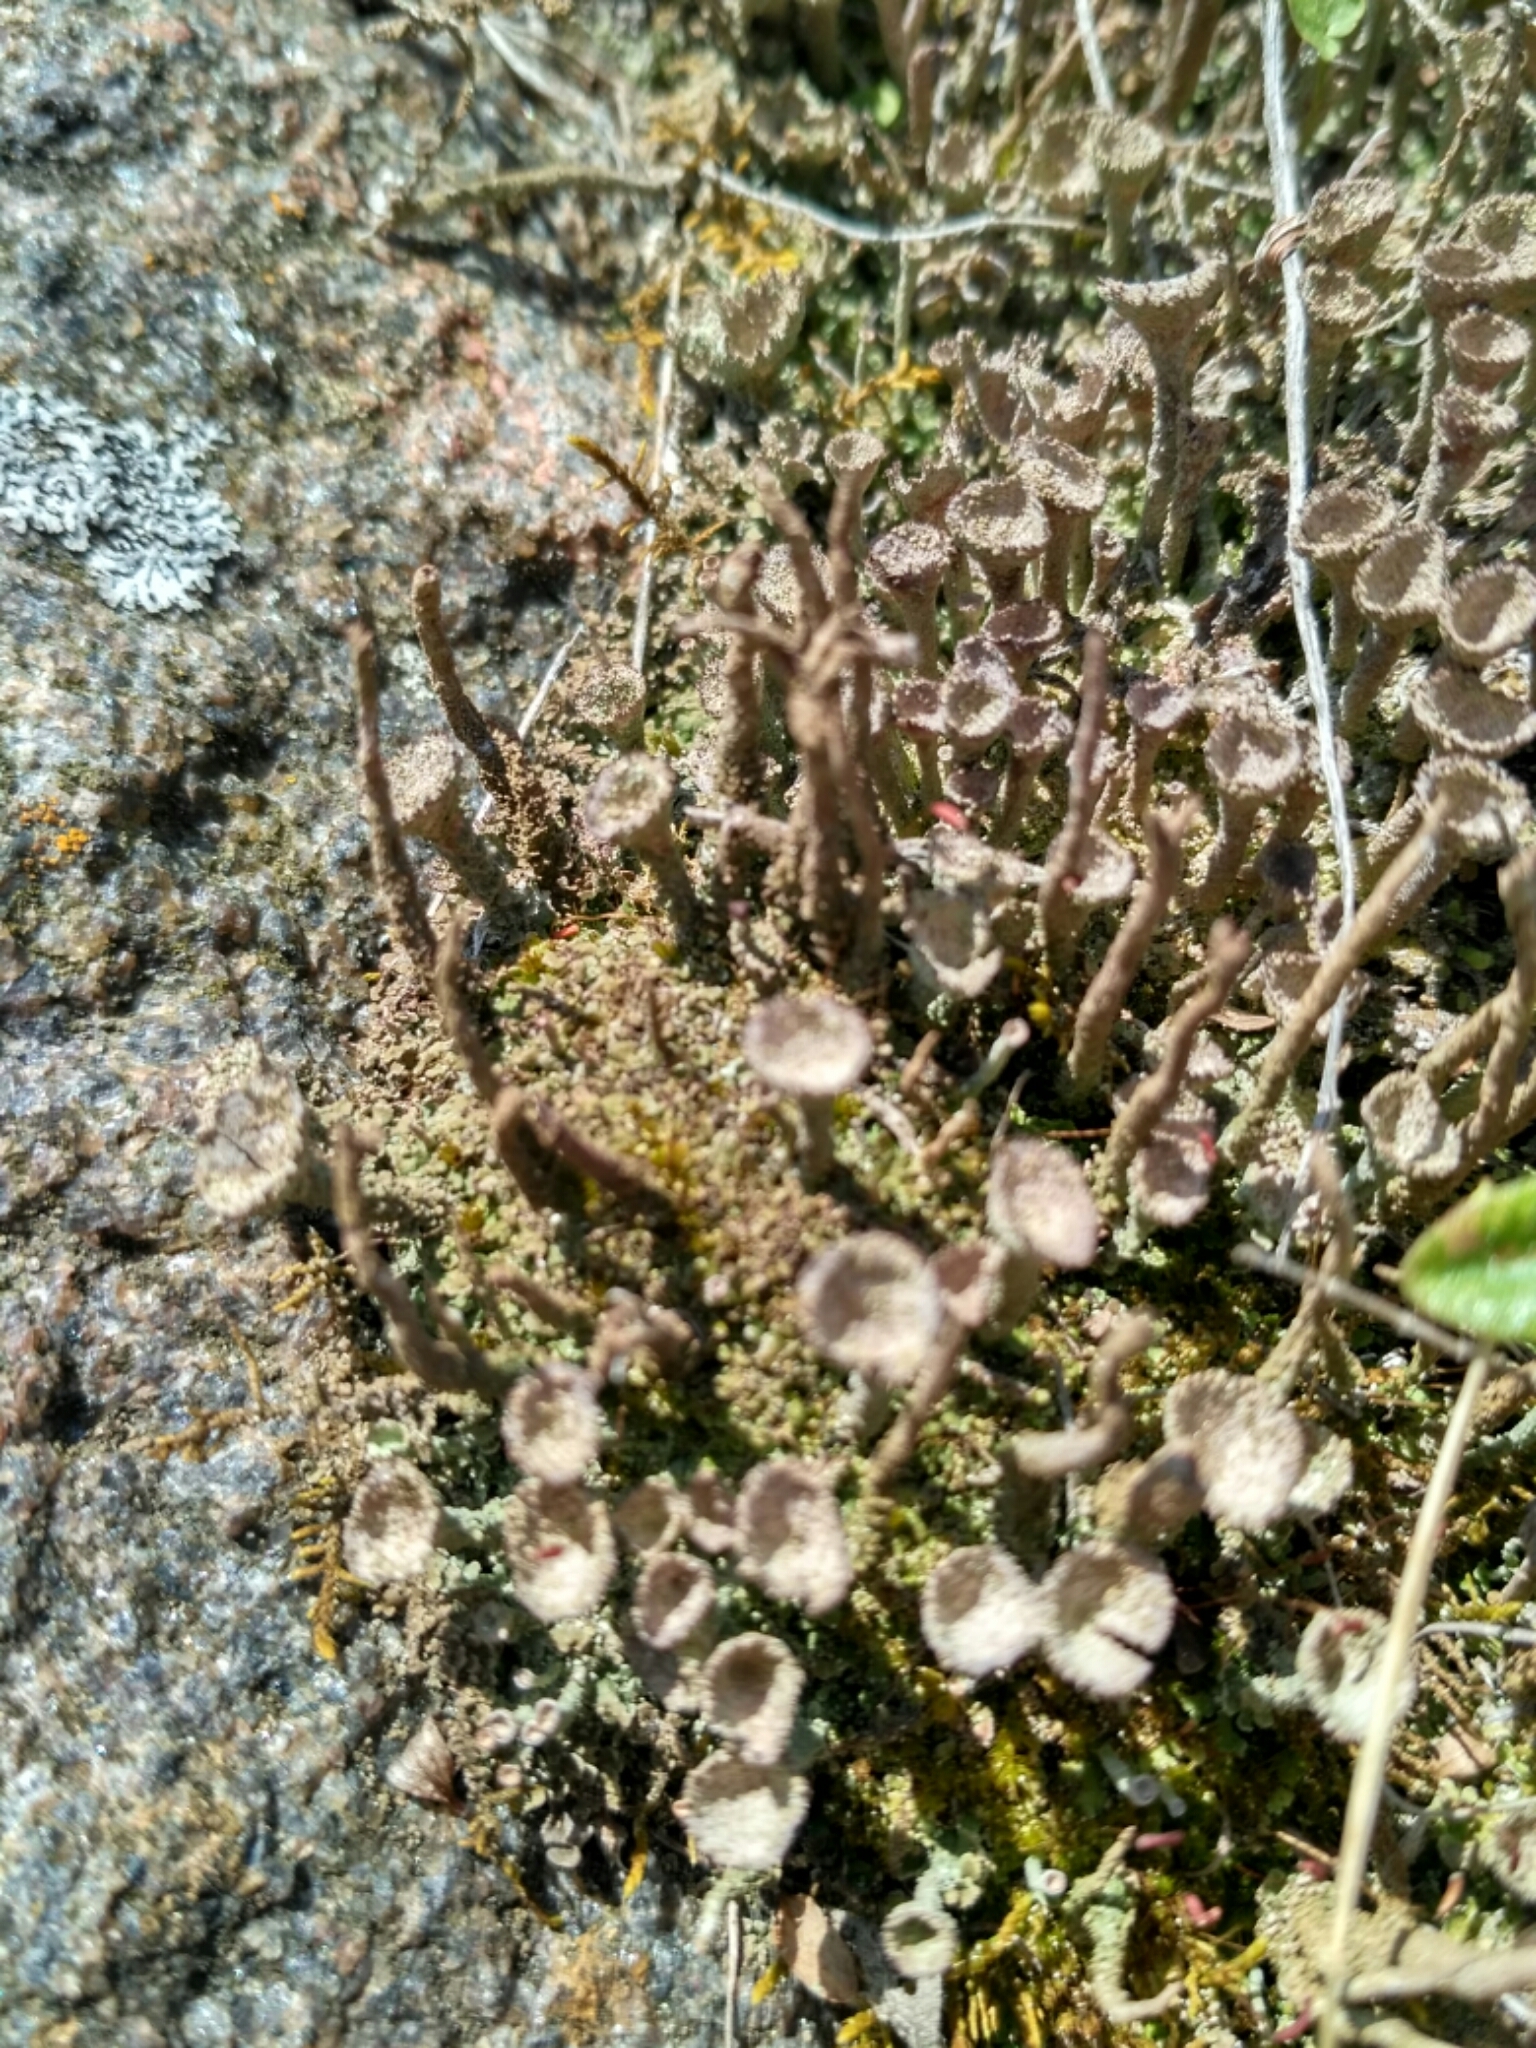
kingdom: Fungi
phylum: Ascomycota
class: Lecanoromycetes
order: Lecanorales
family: Cladoniaceae
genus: Cladonia
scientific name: Cladonia
